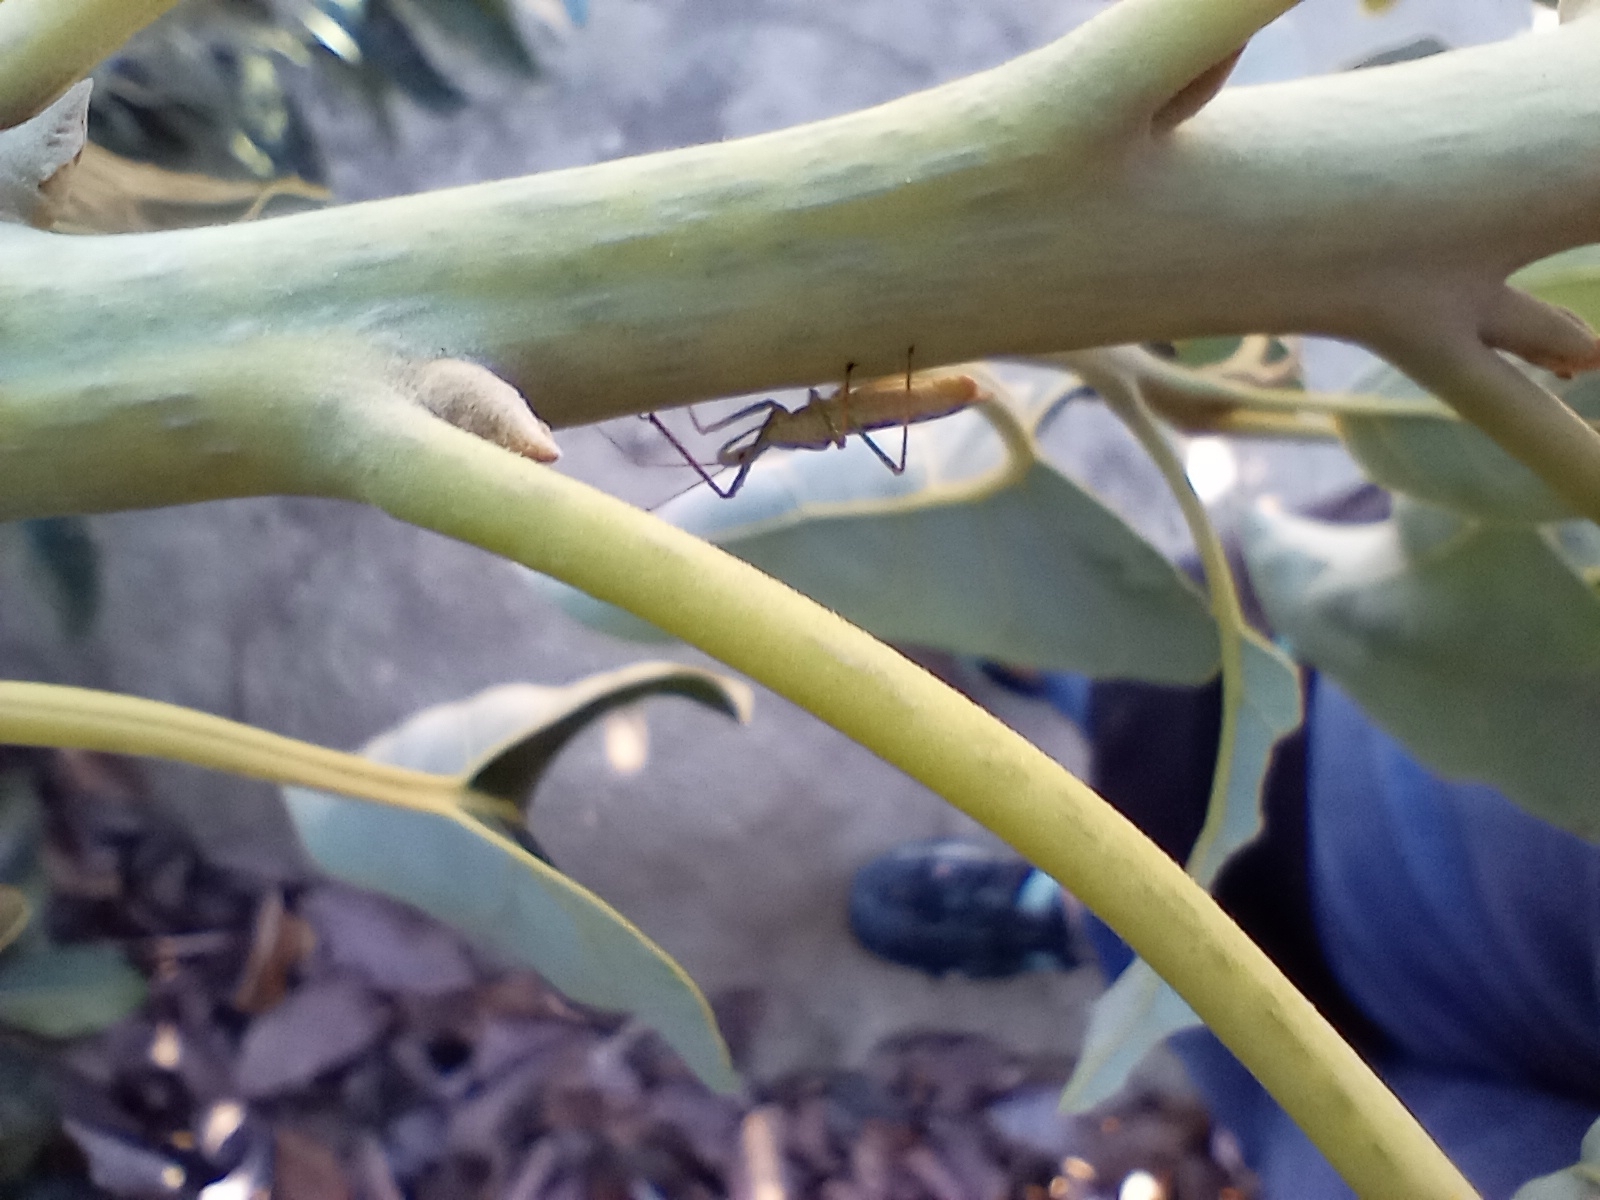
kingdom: Animalia
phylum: Arthropoda
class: Insecta
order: Hemiptera
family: Reduviidae
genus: Zelus
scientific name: Zelus renardii
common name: Assassin bug
